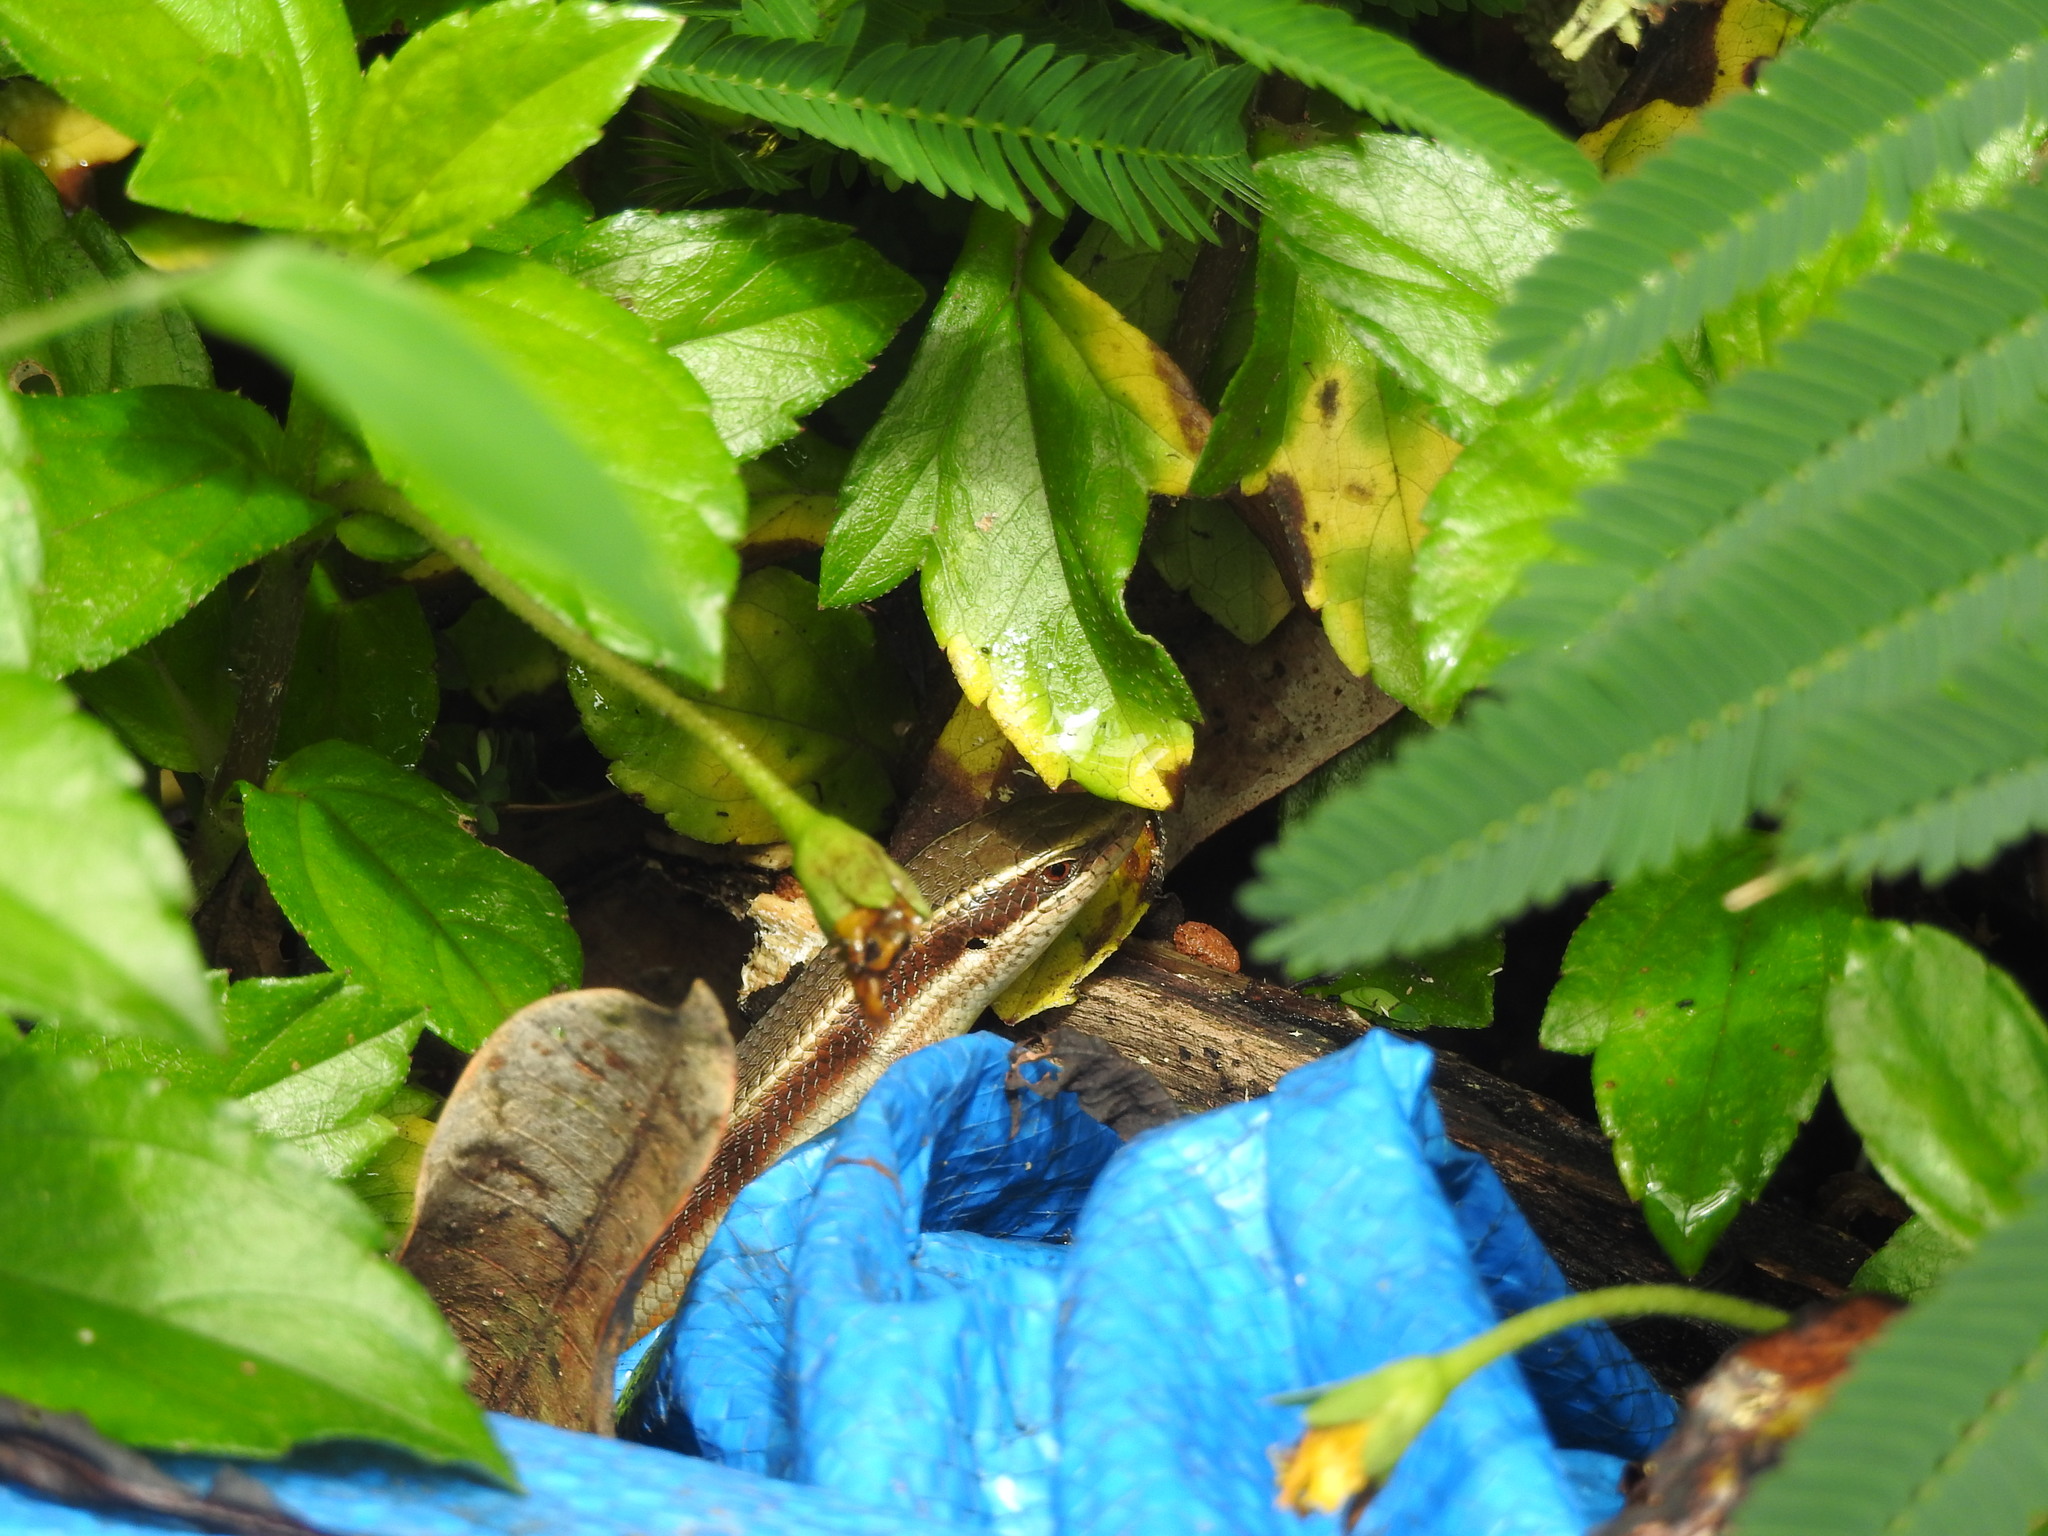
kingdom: Animalia
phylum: Chordata
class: Squamata
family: Scincidae
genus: Eutropis
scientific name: Eutropis carinata
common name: Keeled indian mabuya
